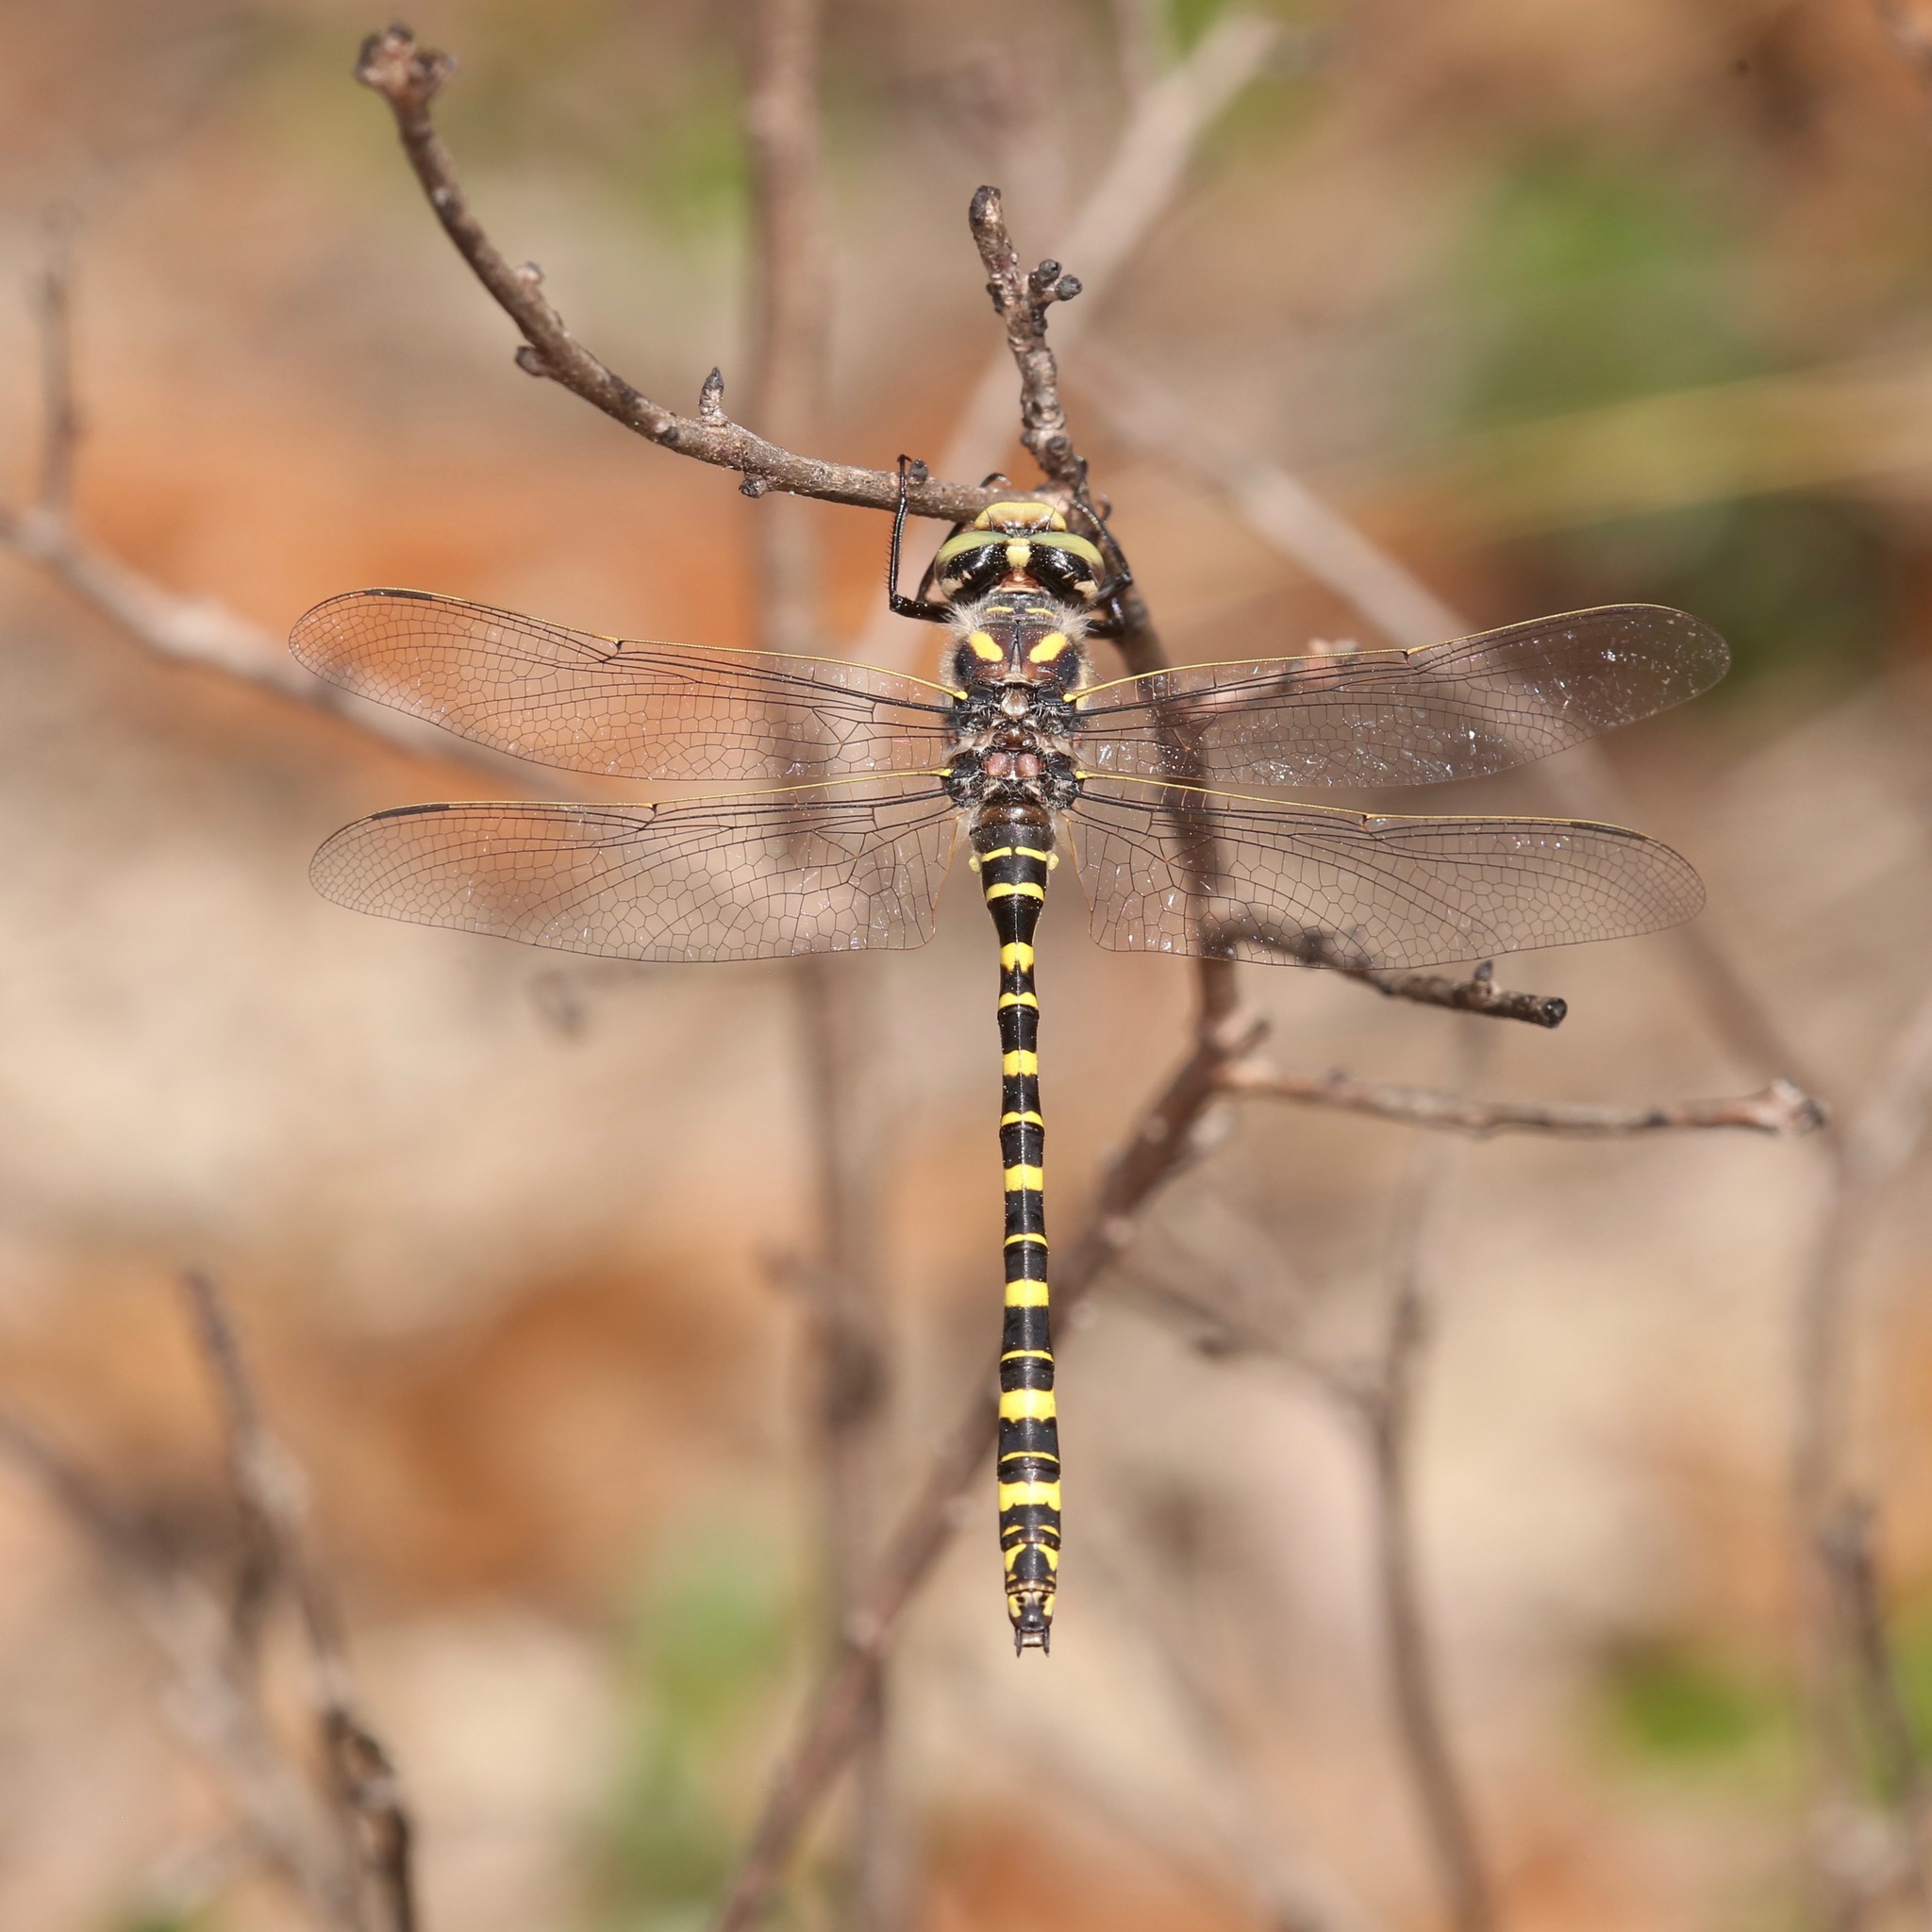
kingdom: Animalia
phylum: Arthropoda
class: Insecta
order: Odonata
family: Cordulegastridae
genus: Cordulegaster
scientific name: Cordulegaster sayi
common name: Say's spiketail
